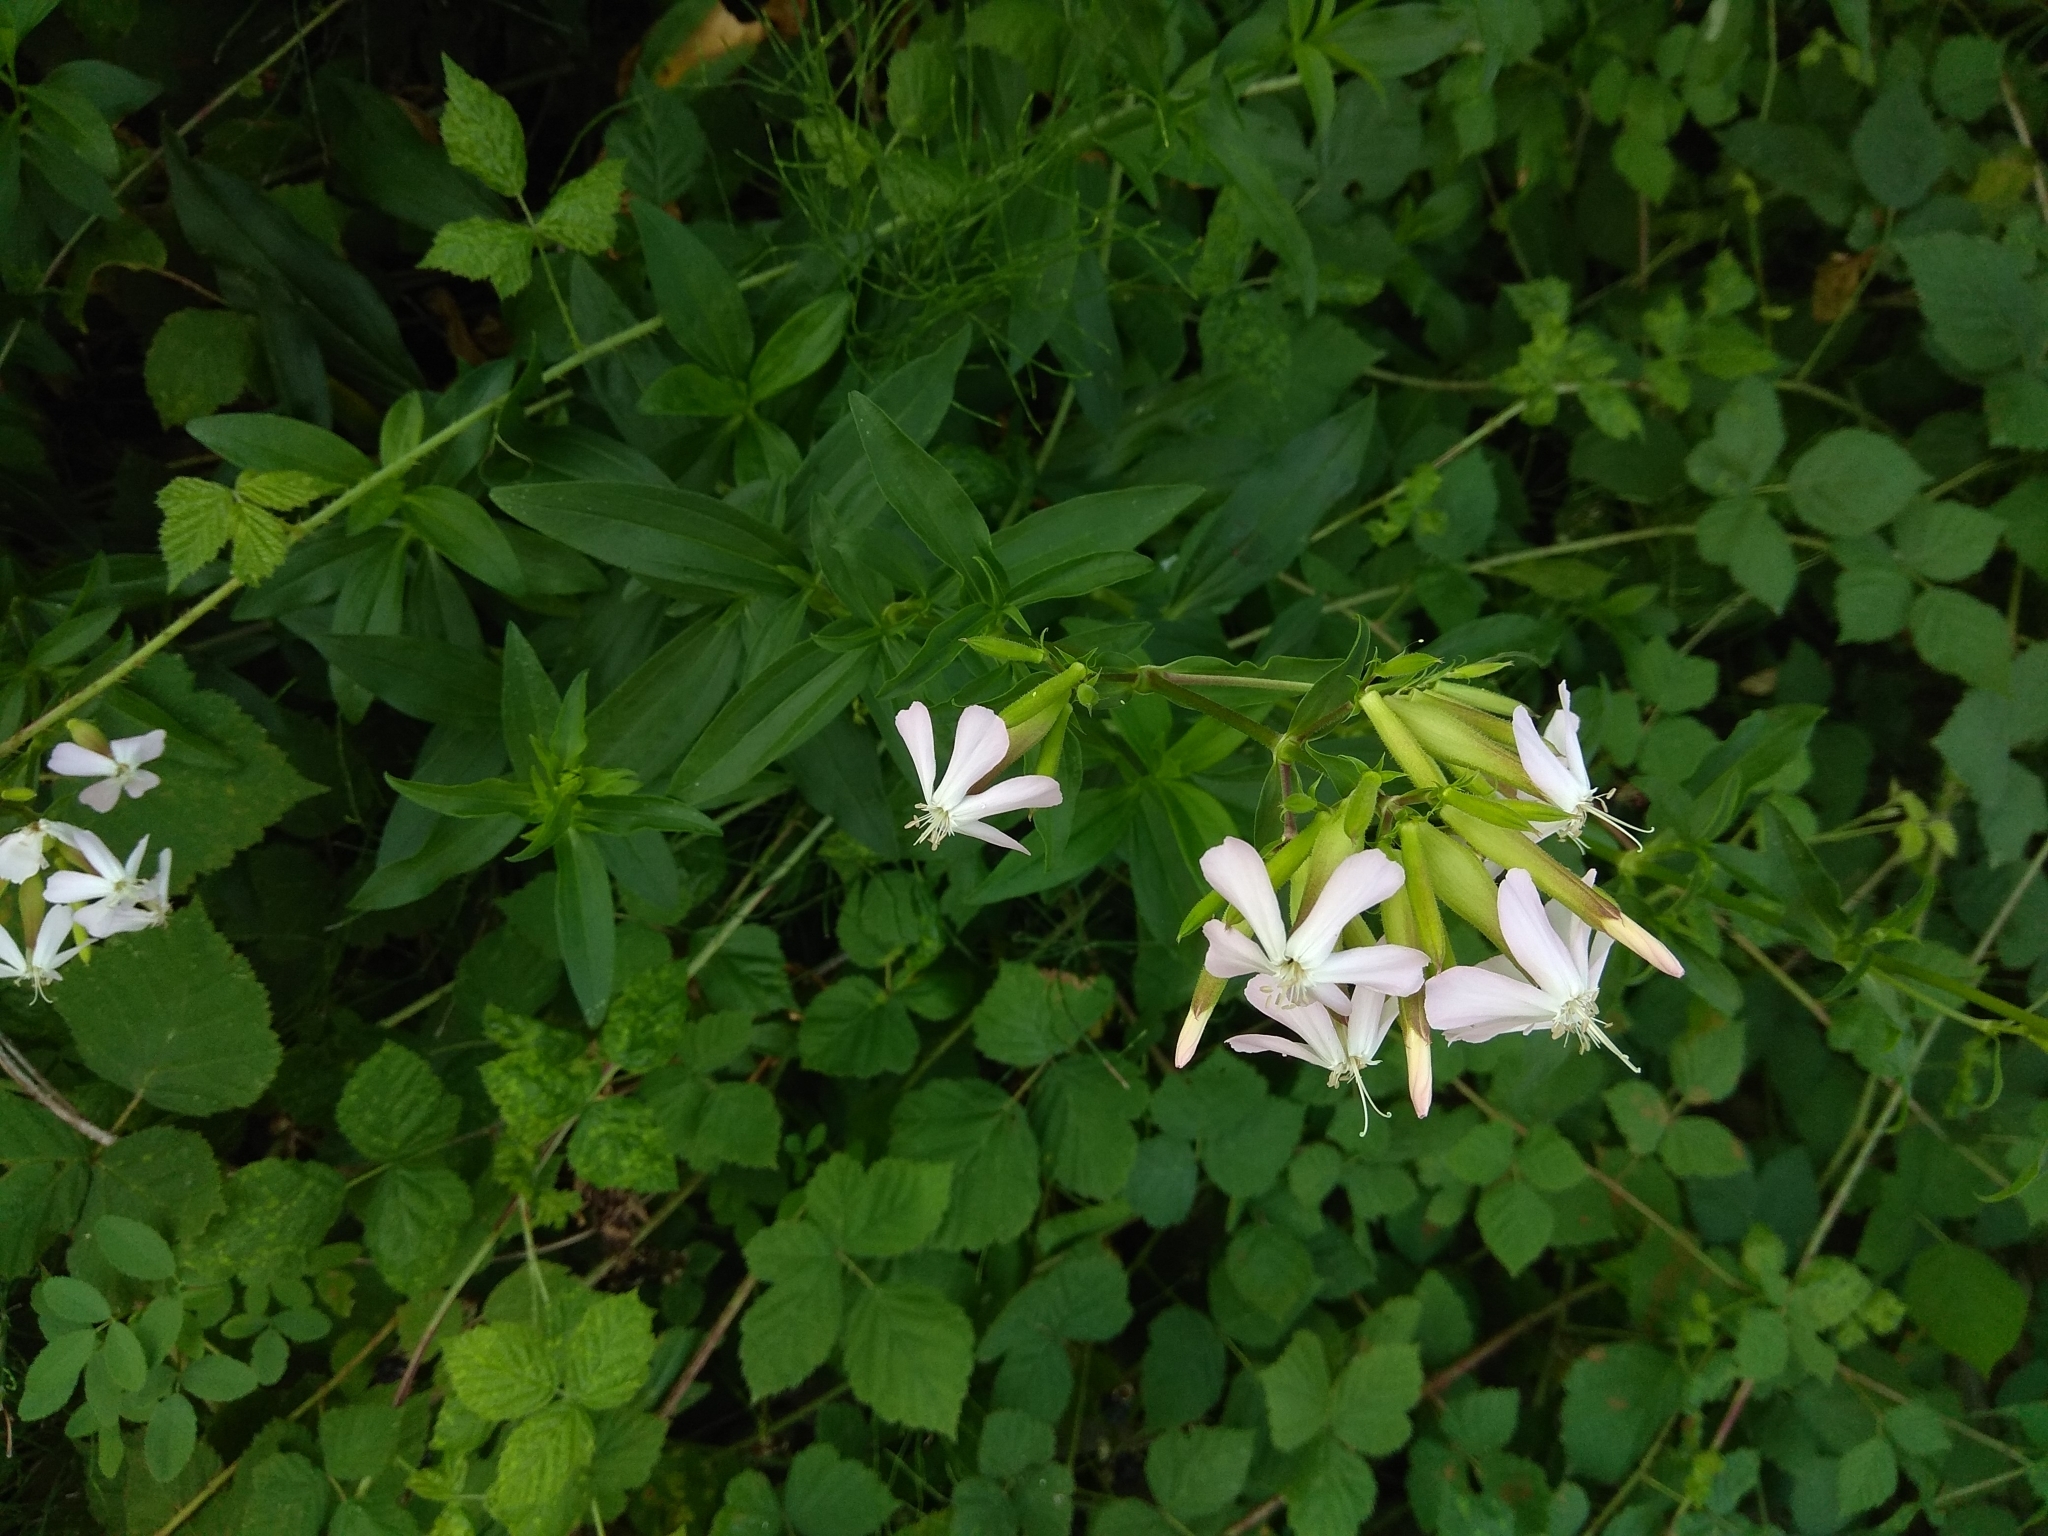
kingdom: Plantae
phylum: Tracheophyta
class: Magnoliopsida
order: Caryophyllales
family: Caryophyllaceae
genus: Saponaria
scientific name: Saponaria officinalis
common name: Soapwort
